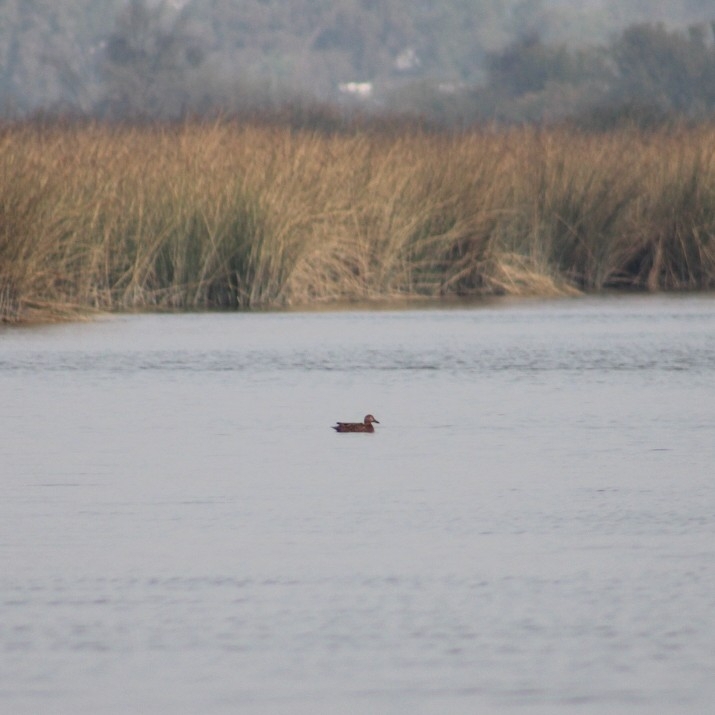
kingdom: Animalia
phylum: Chordata
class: Aves
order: Anseriformes
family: Anatidae
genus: Spatula
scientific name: Spatula platalea
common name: Red shoveler
